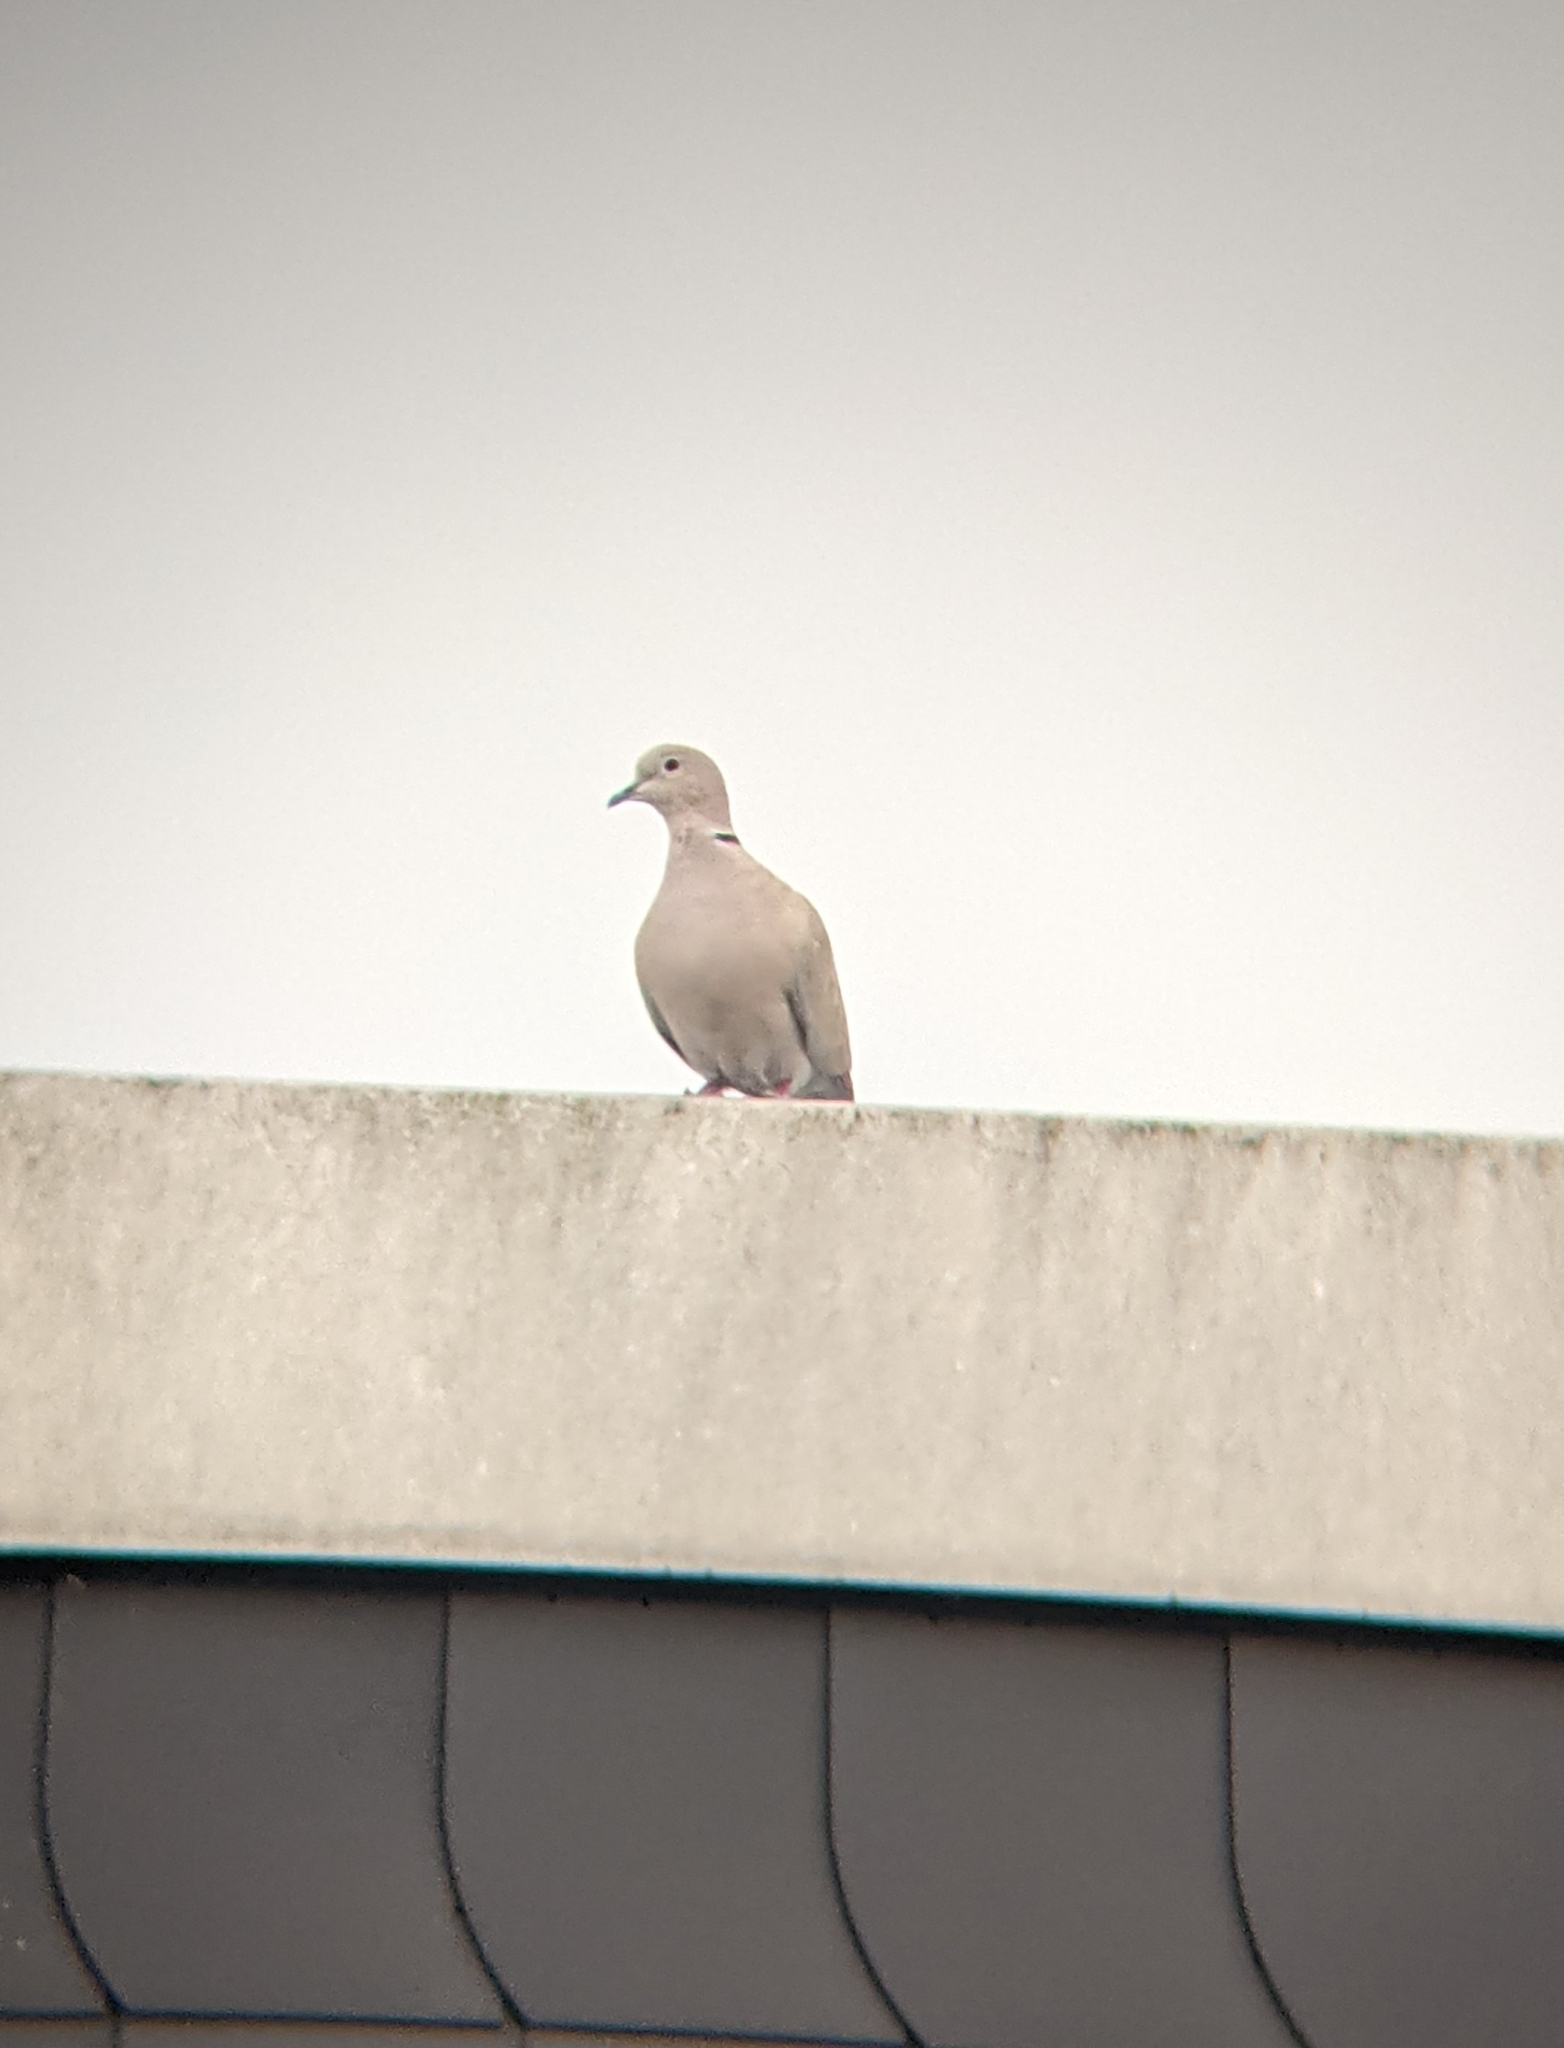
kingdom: Animalia
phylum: Chordata
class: Aves
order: Columbiformes
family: Columbidae
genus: Streptopelia
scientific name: Streptopelia decaocto
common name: Eurasian collared dove
